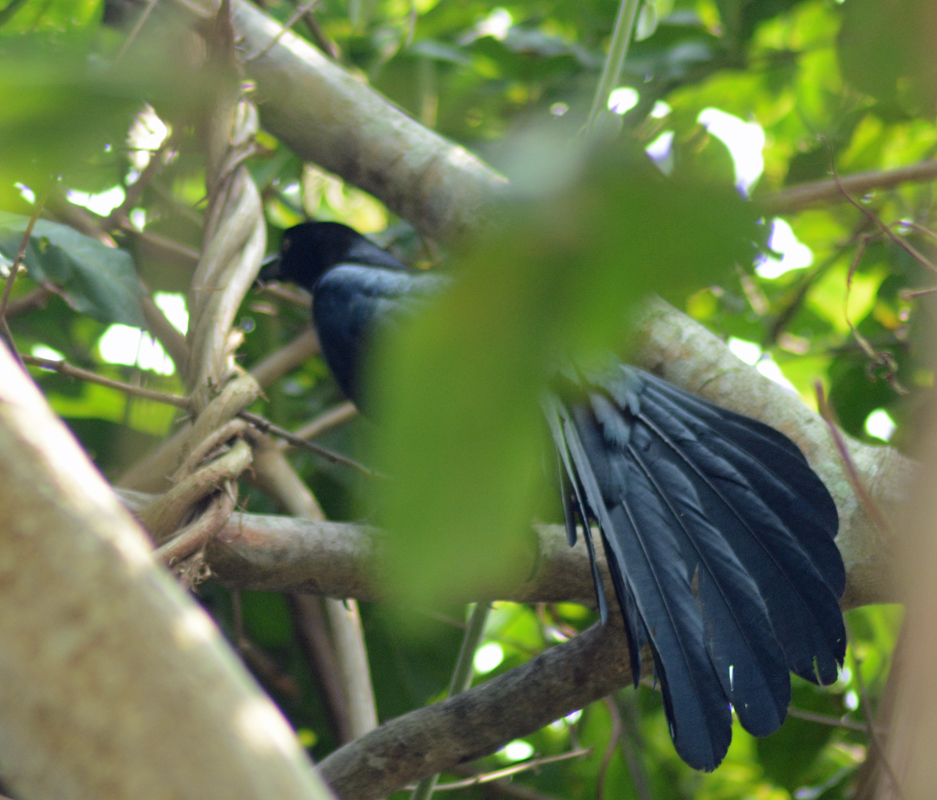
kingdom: Animalia
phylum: Chordata
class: Aves
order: Passeriformes
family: Icteridae
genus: Quiscalus
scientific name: Quiscalus mexicanus
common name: Great-tailed grackle
